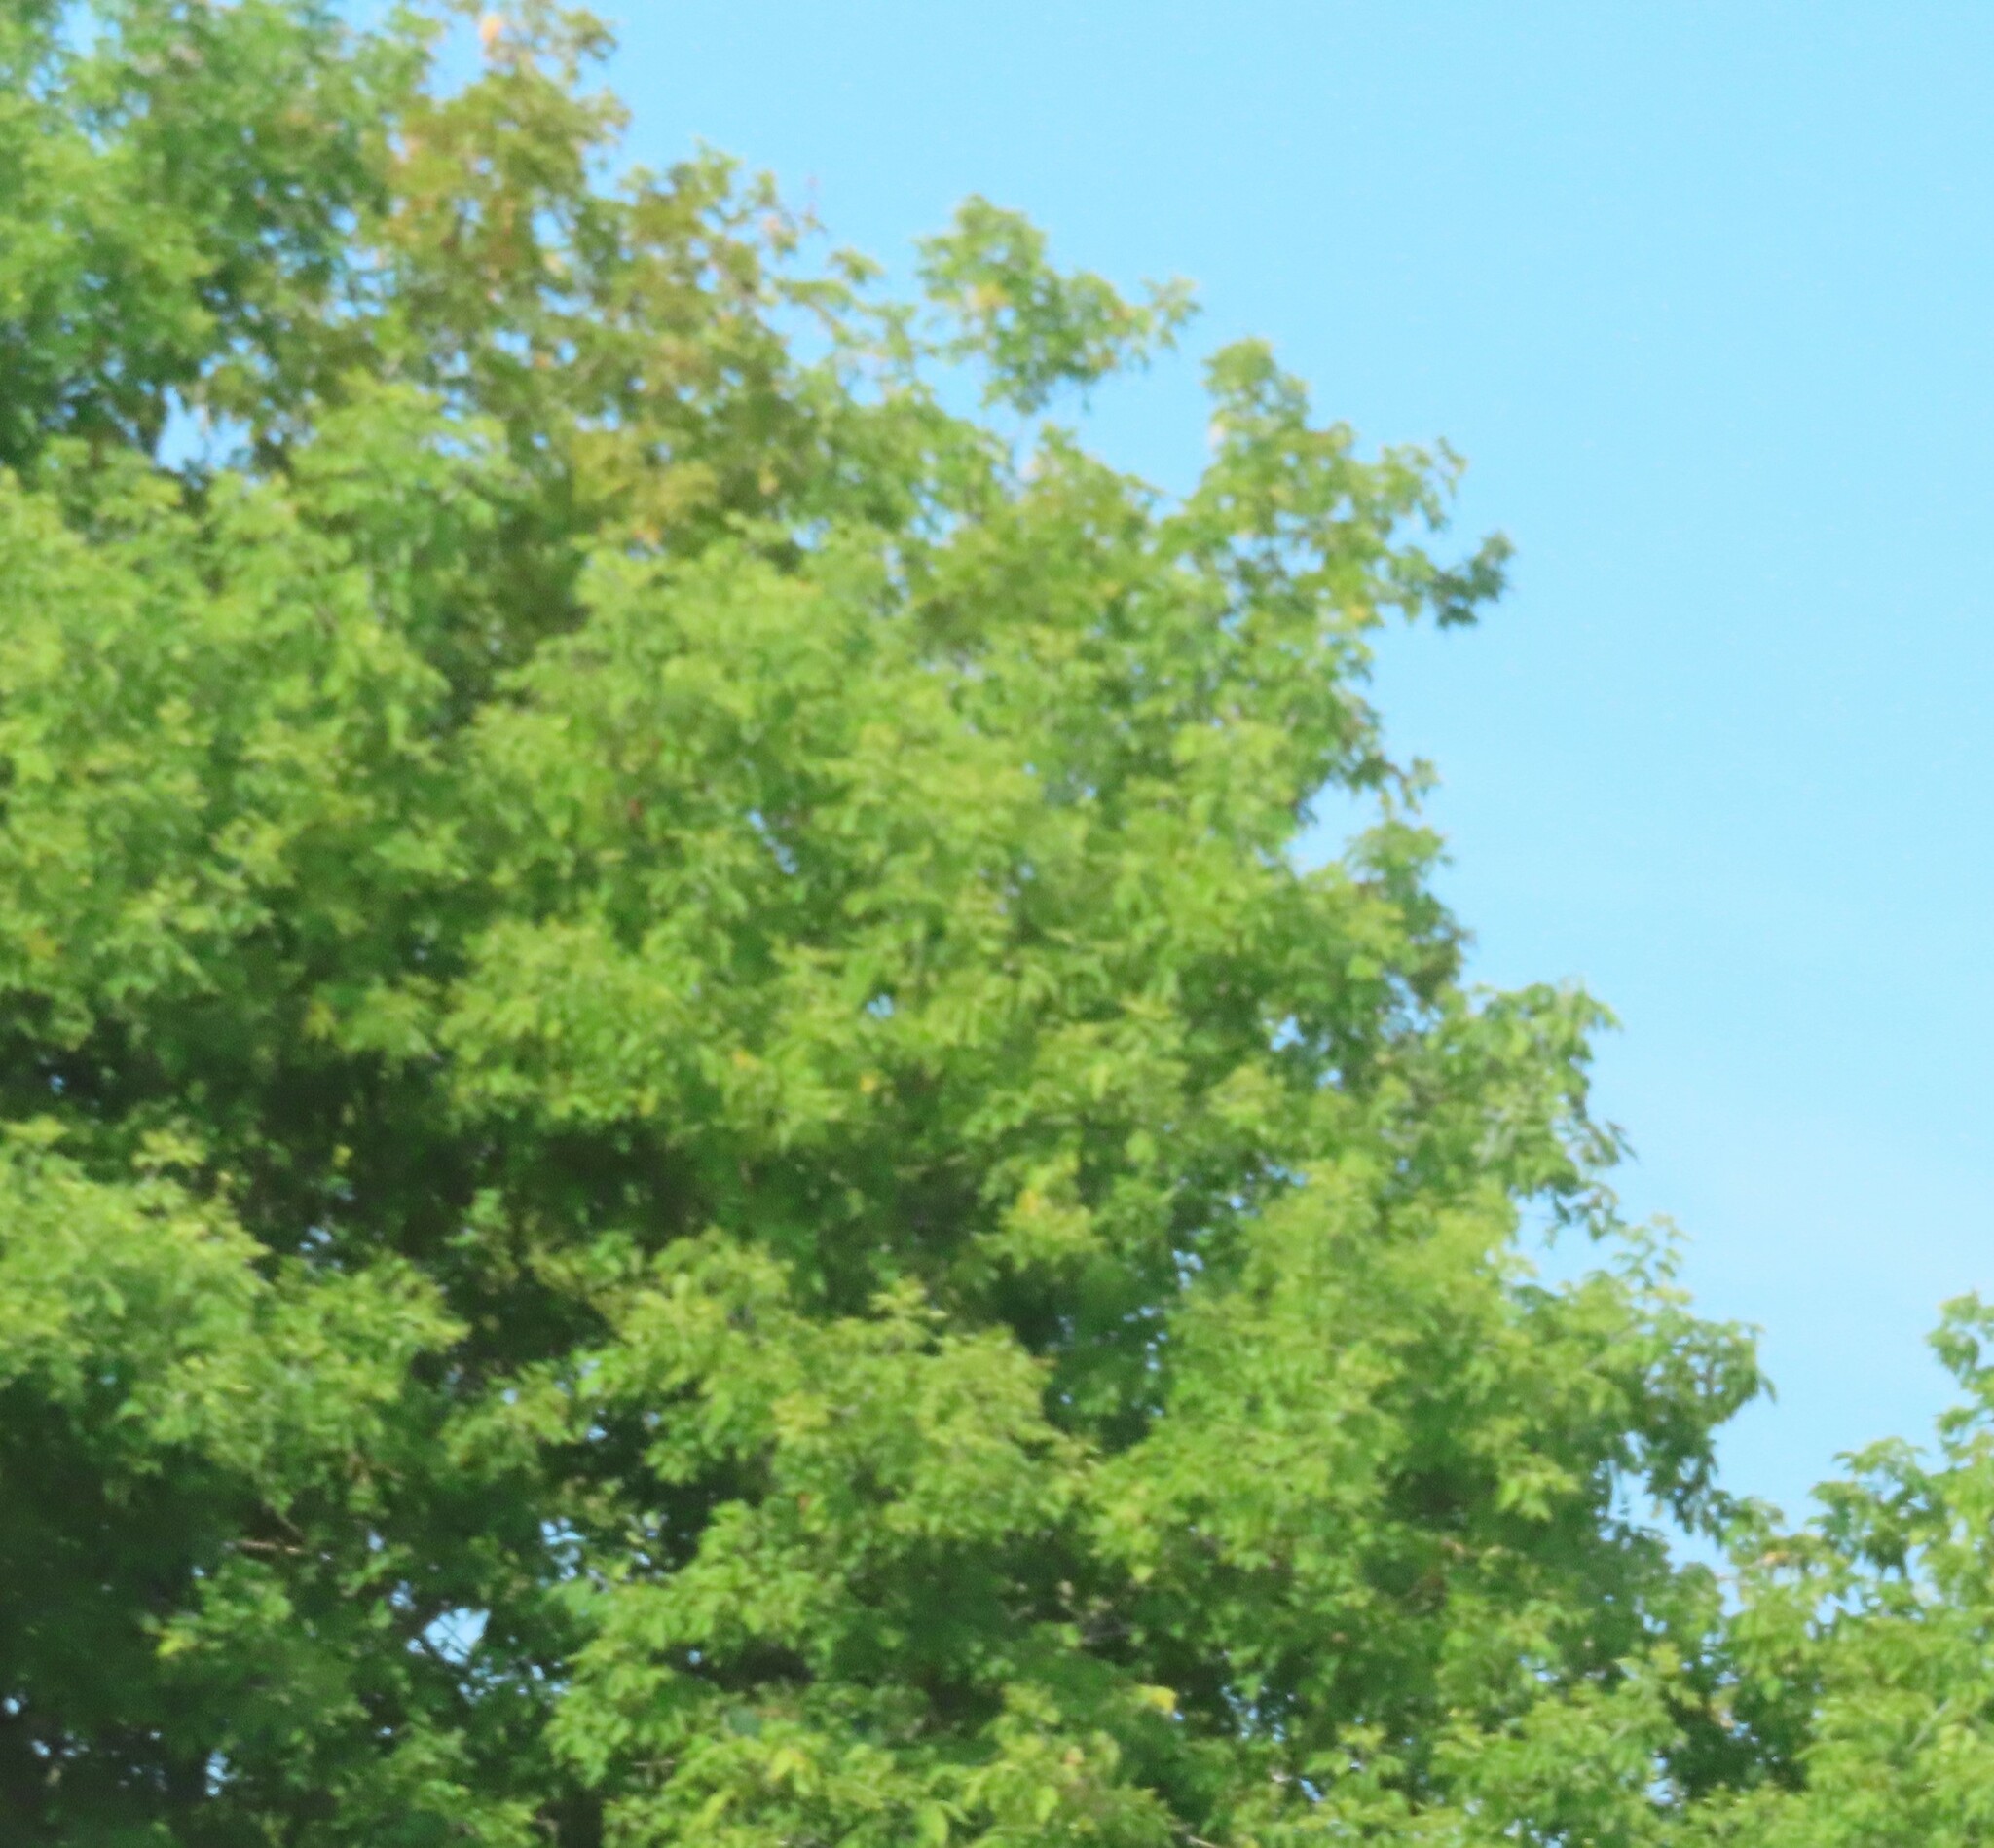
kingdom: Plantae
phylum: Tracheophyta
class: Magnoliopsida
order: Sapindales
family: Sapindaceae
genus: Acer
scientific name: Acer negundo
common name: Ashleaf maple
